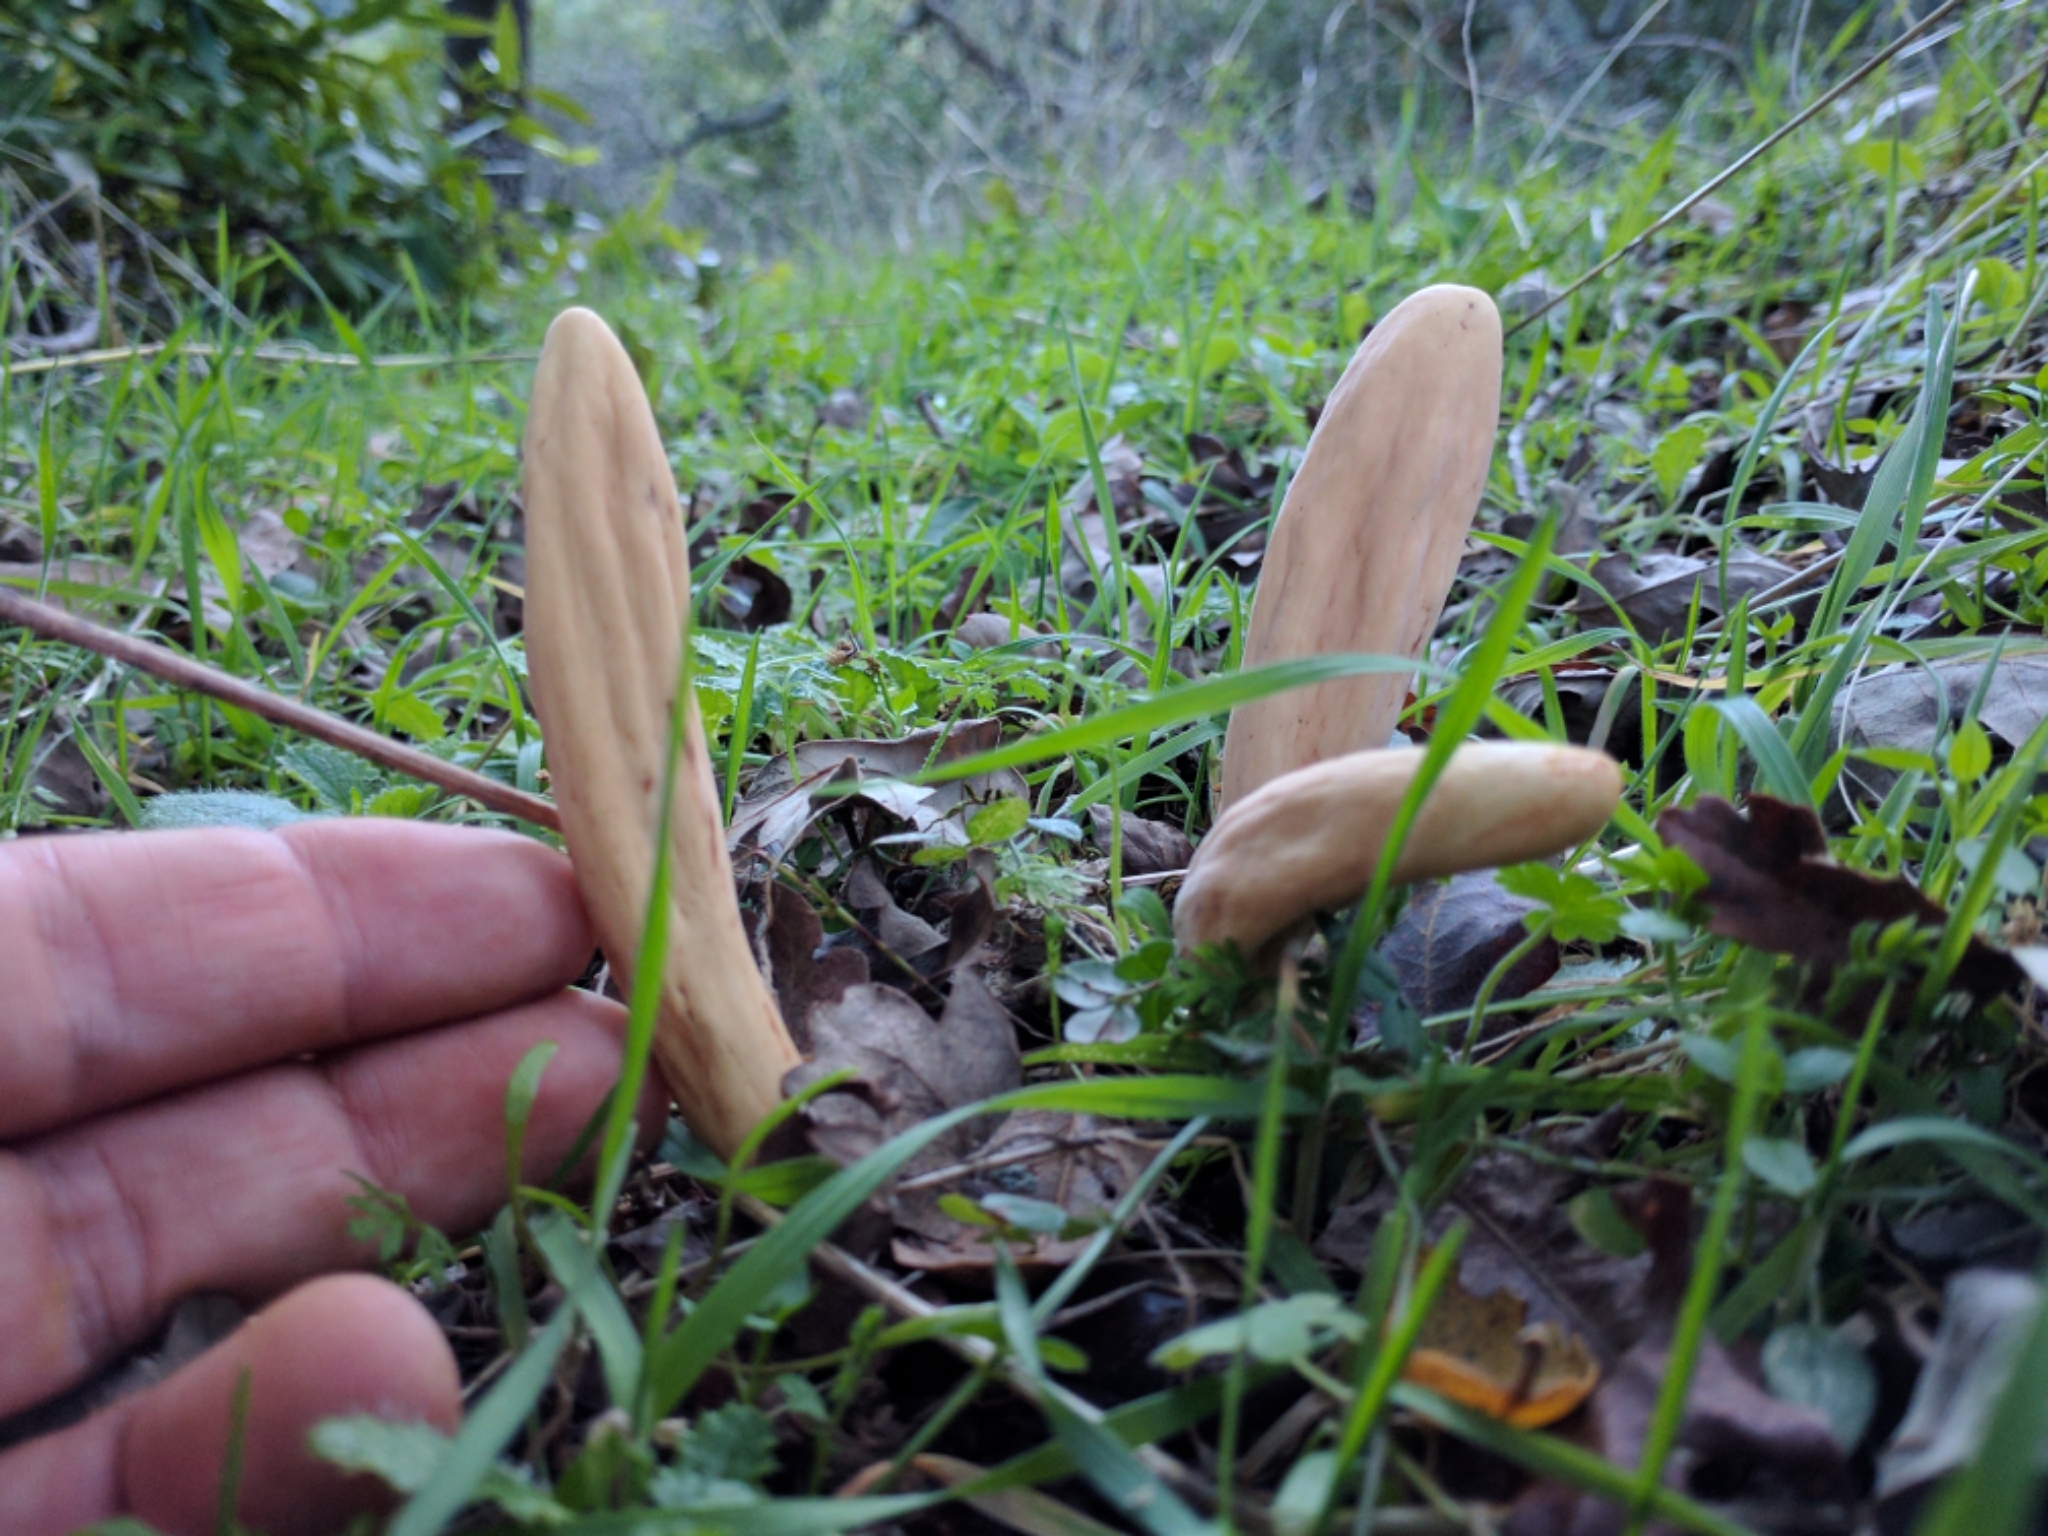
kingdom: Fungi
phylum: Basidiomycota
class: Agaricomycetes
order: Gomphales
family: Clavariadelphaceae
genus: Clavariadelphus
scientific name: Clavariadelphus occidentalis
